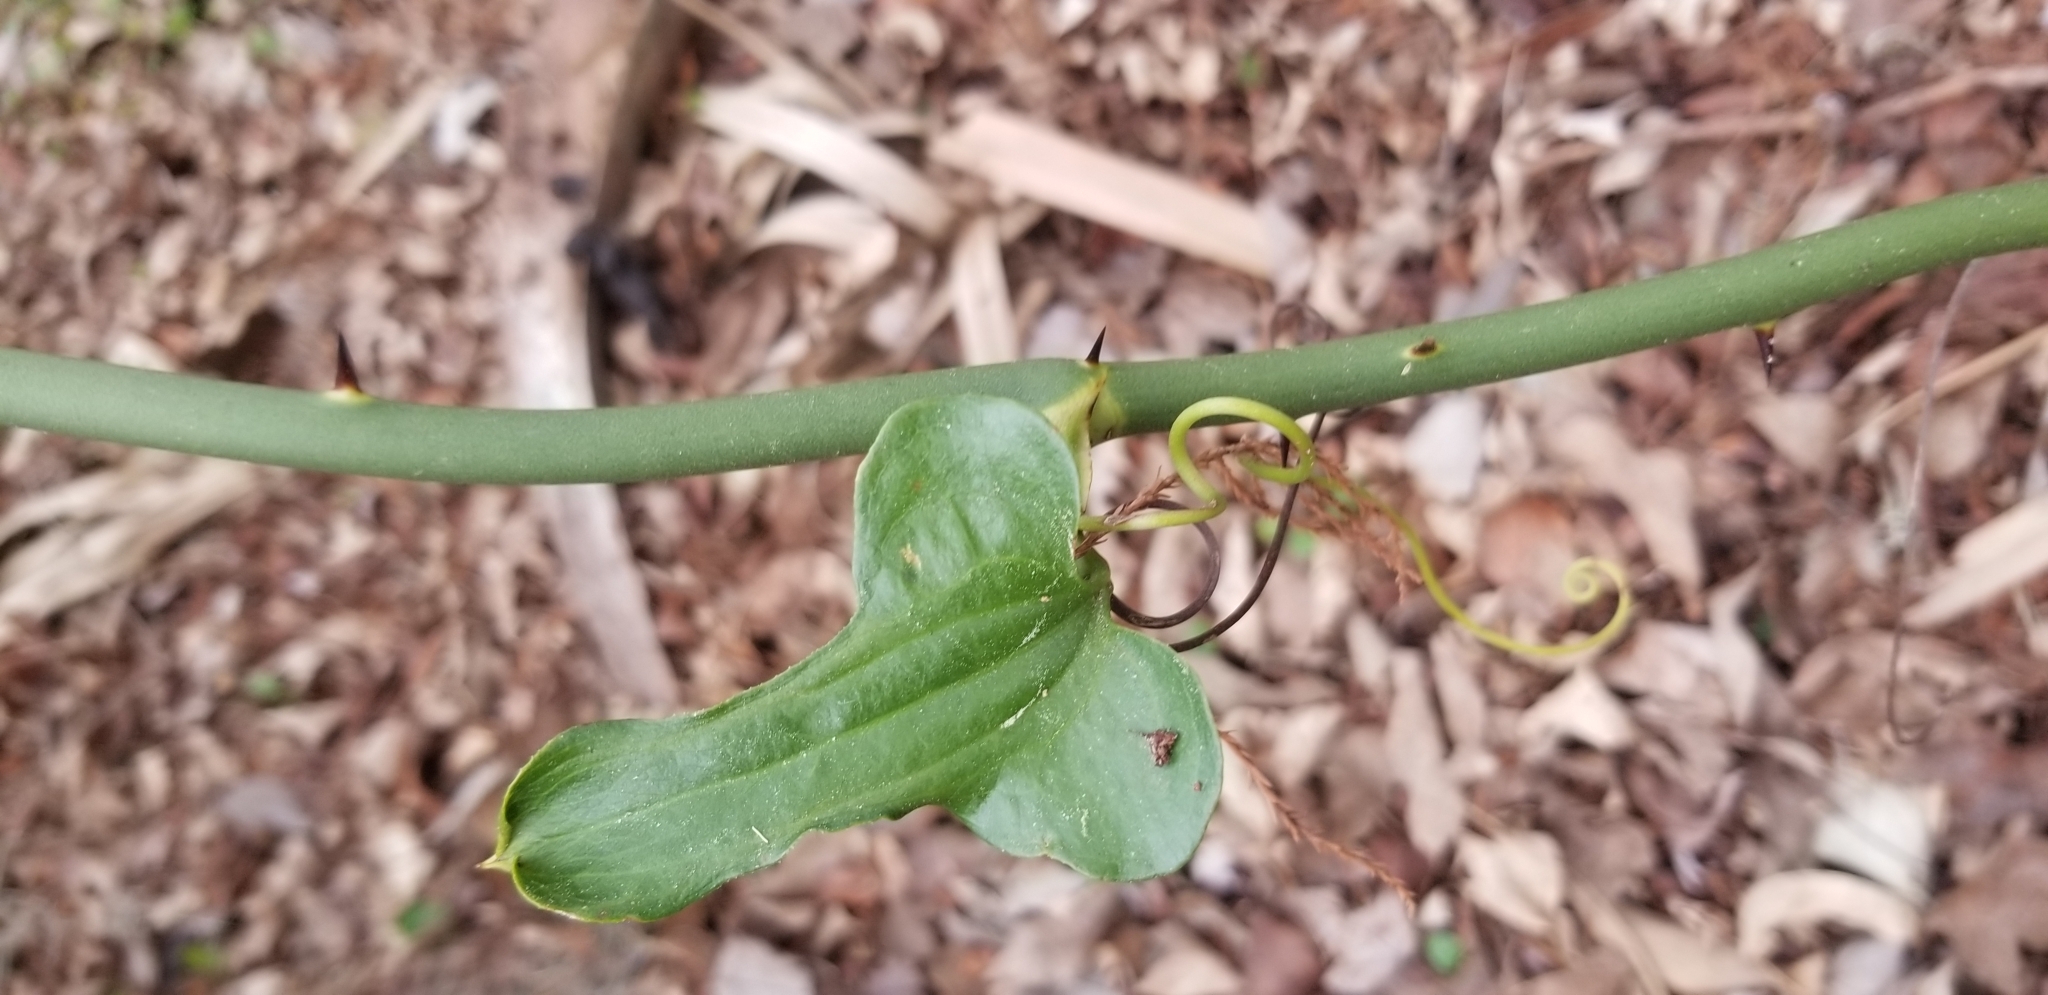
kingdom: Plantae
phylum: Tracheophyta
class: Liliopsida
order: Liliales
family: Smilacaceae
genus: Smilax
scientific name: Smilax tamnoides
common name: Hellfetter
